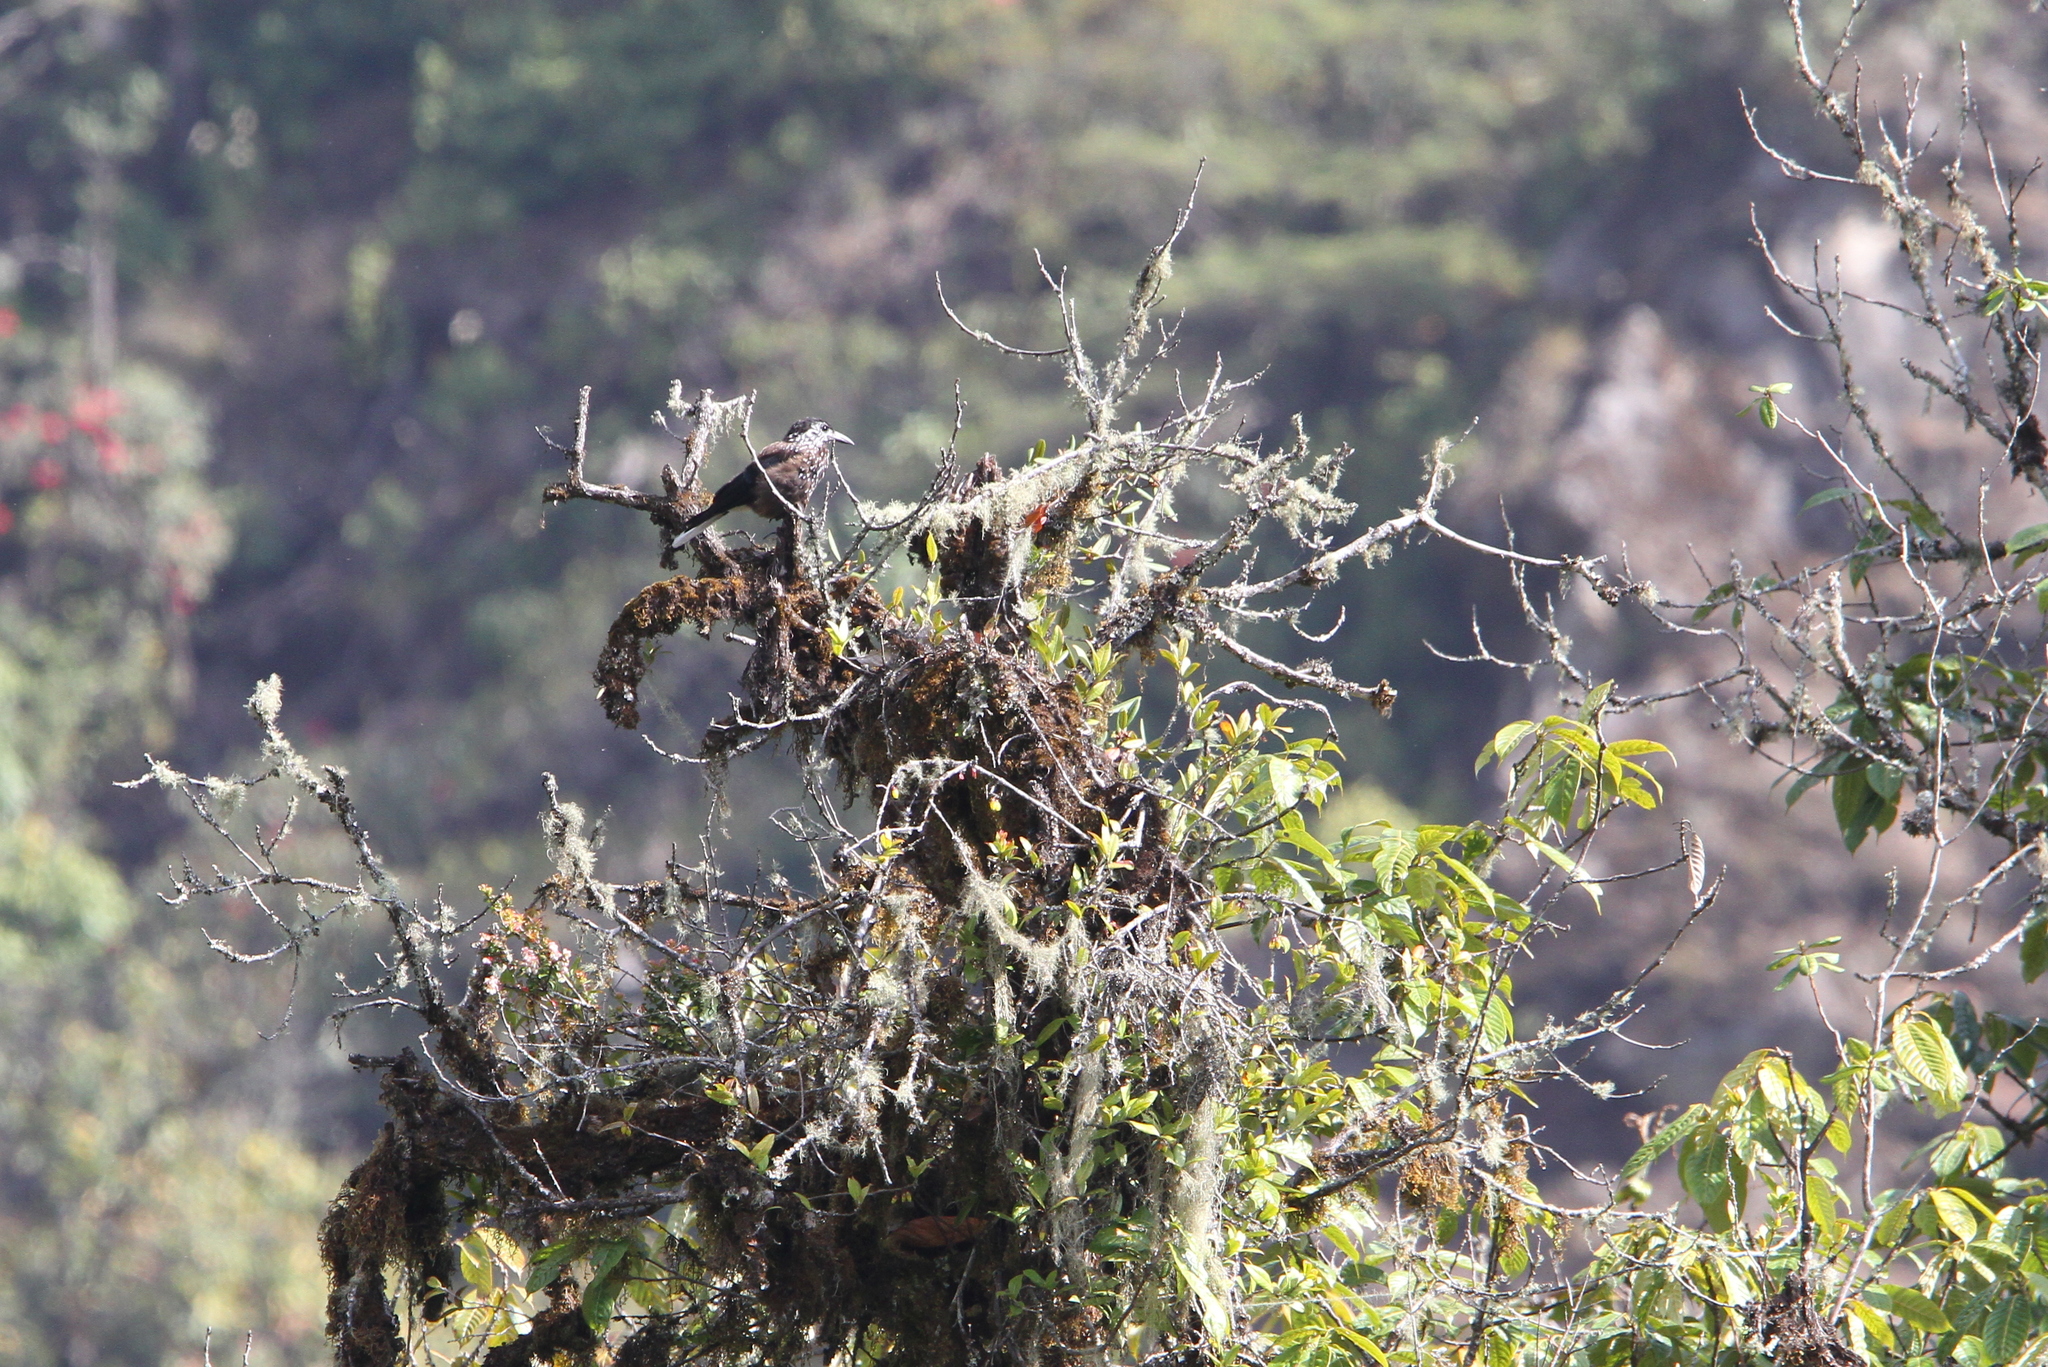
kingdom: Animalia
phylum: Chordata
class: Aves
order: Passeriformes
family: Corvidae
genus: Nucifraga
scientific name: Nucifraga caryocatactes
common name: Spotted nutcracker
